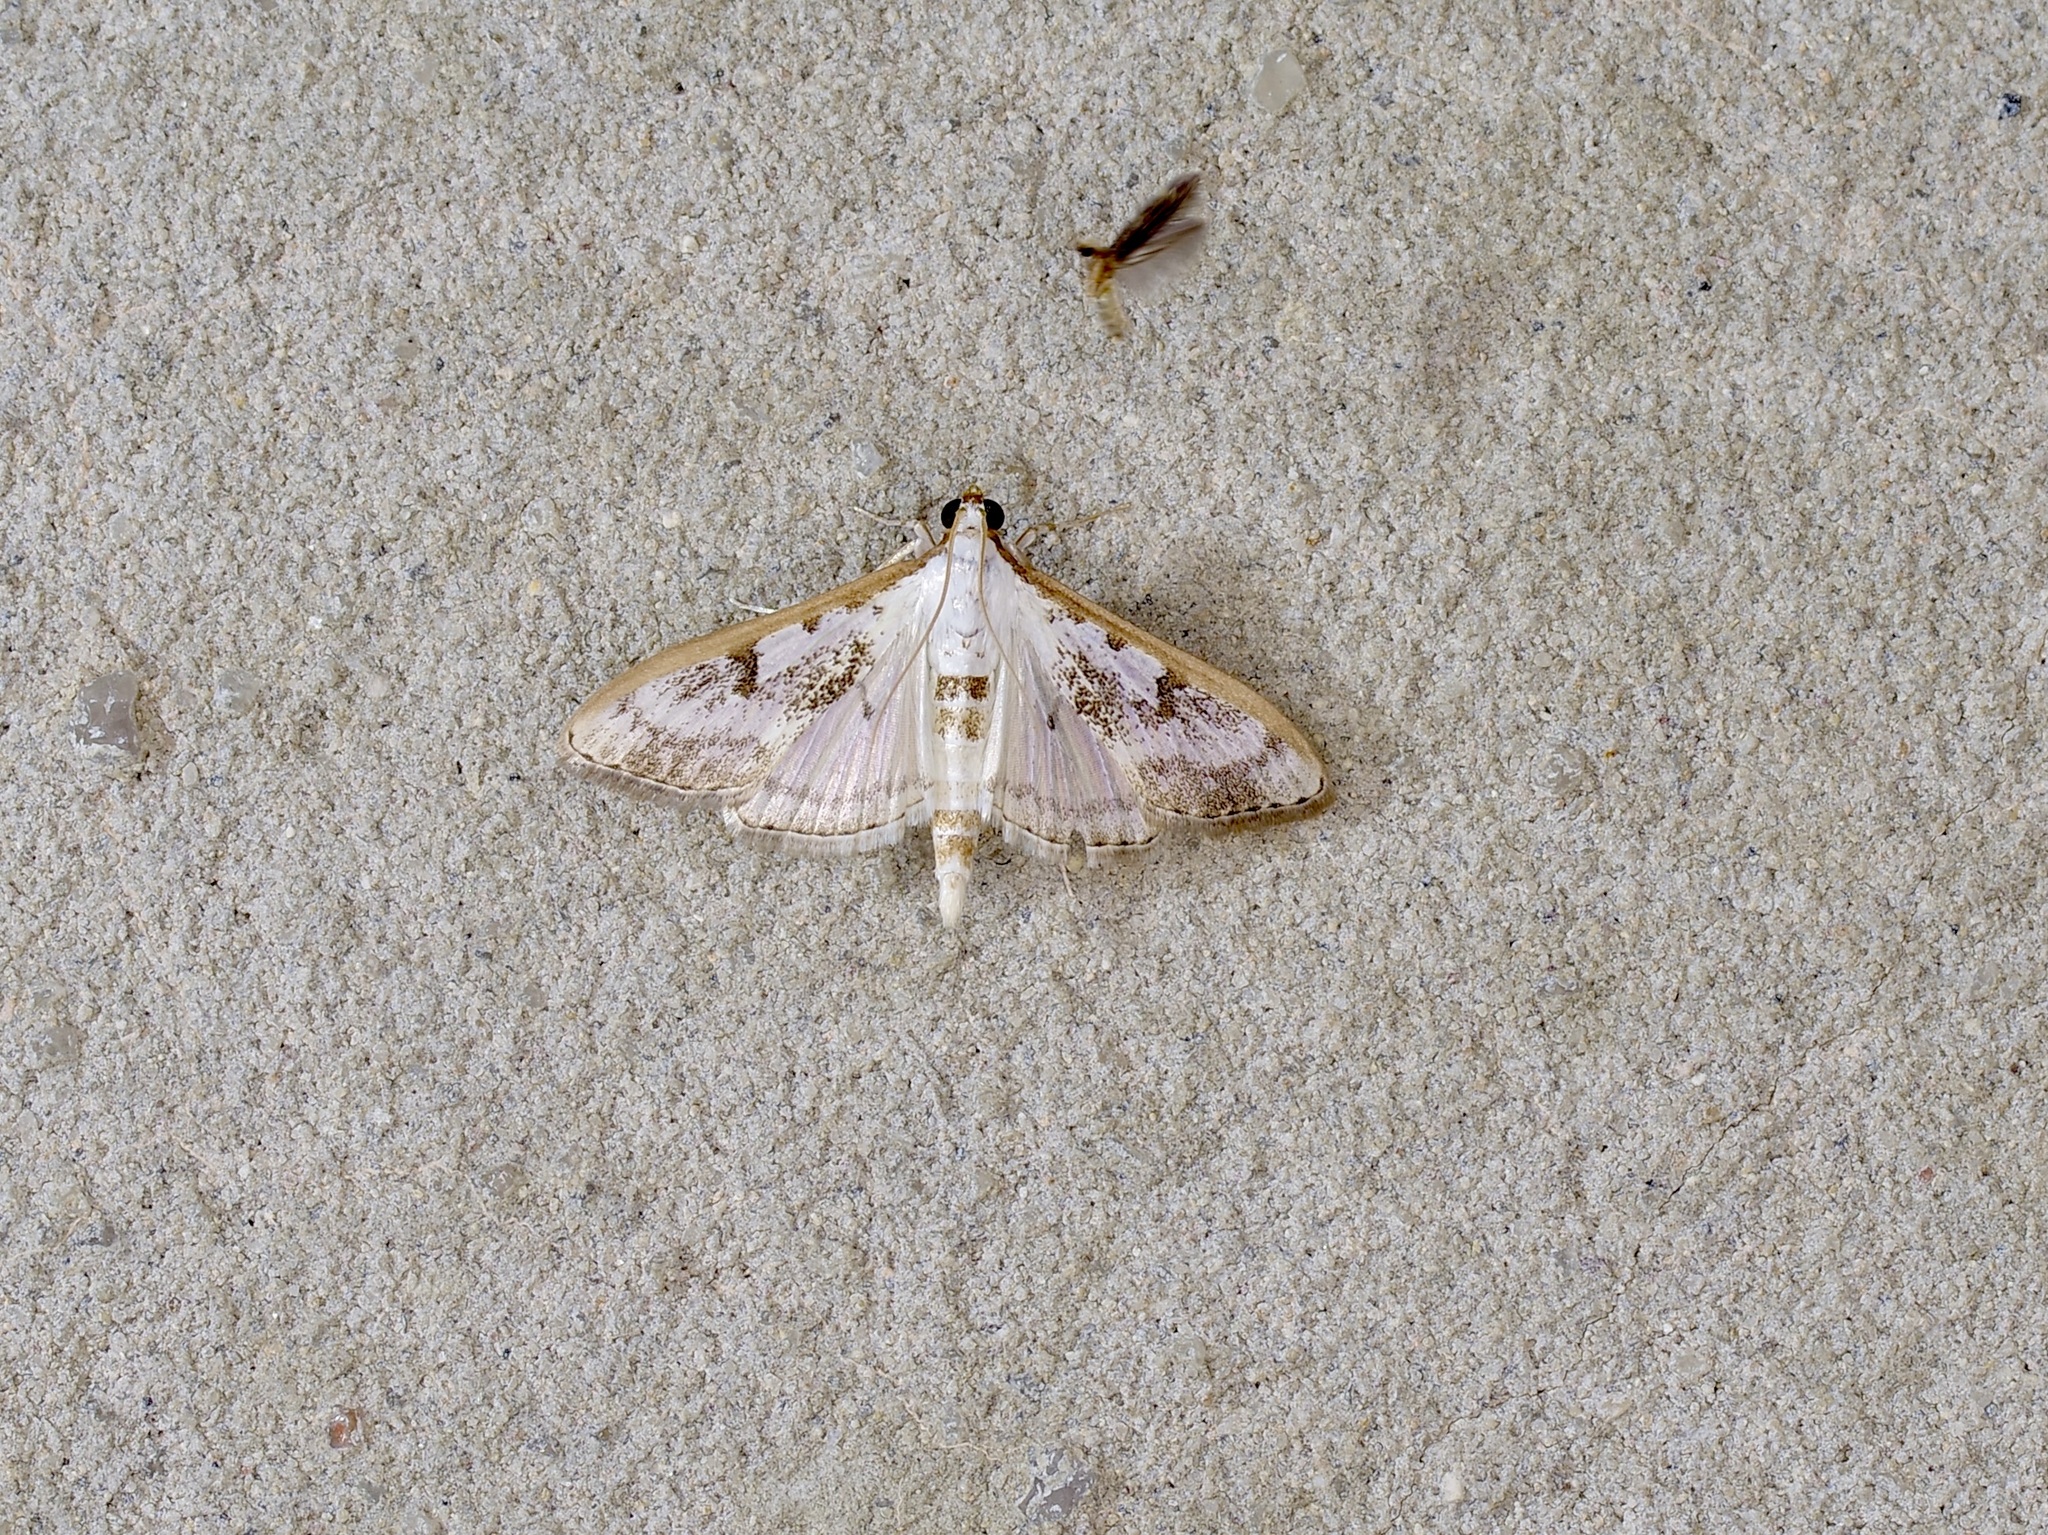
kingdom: Animalia
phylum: Arthropoda
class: Insecta
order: Lepidoptera
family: Crambidae
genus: Palpita
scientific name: Palpita gracilalis
